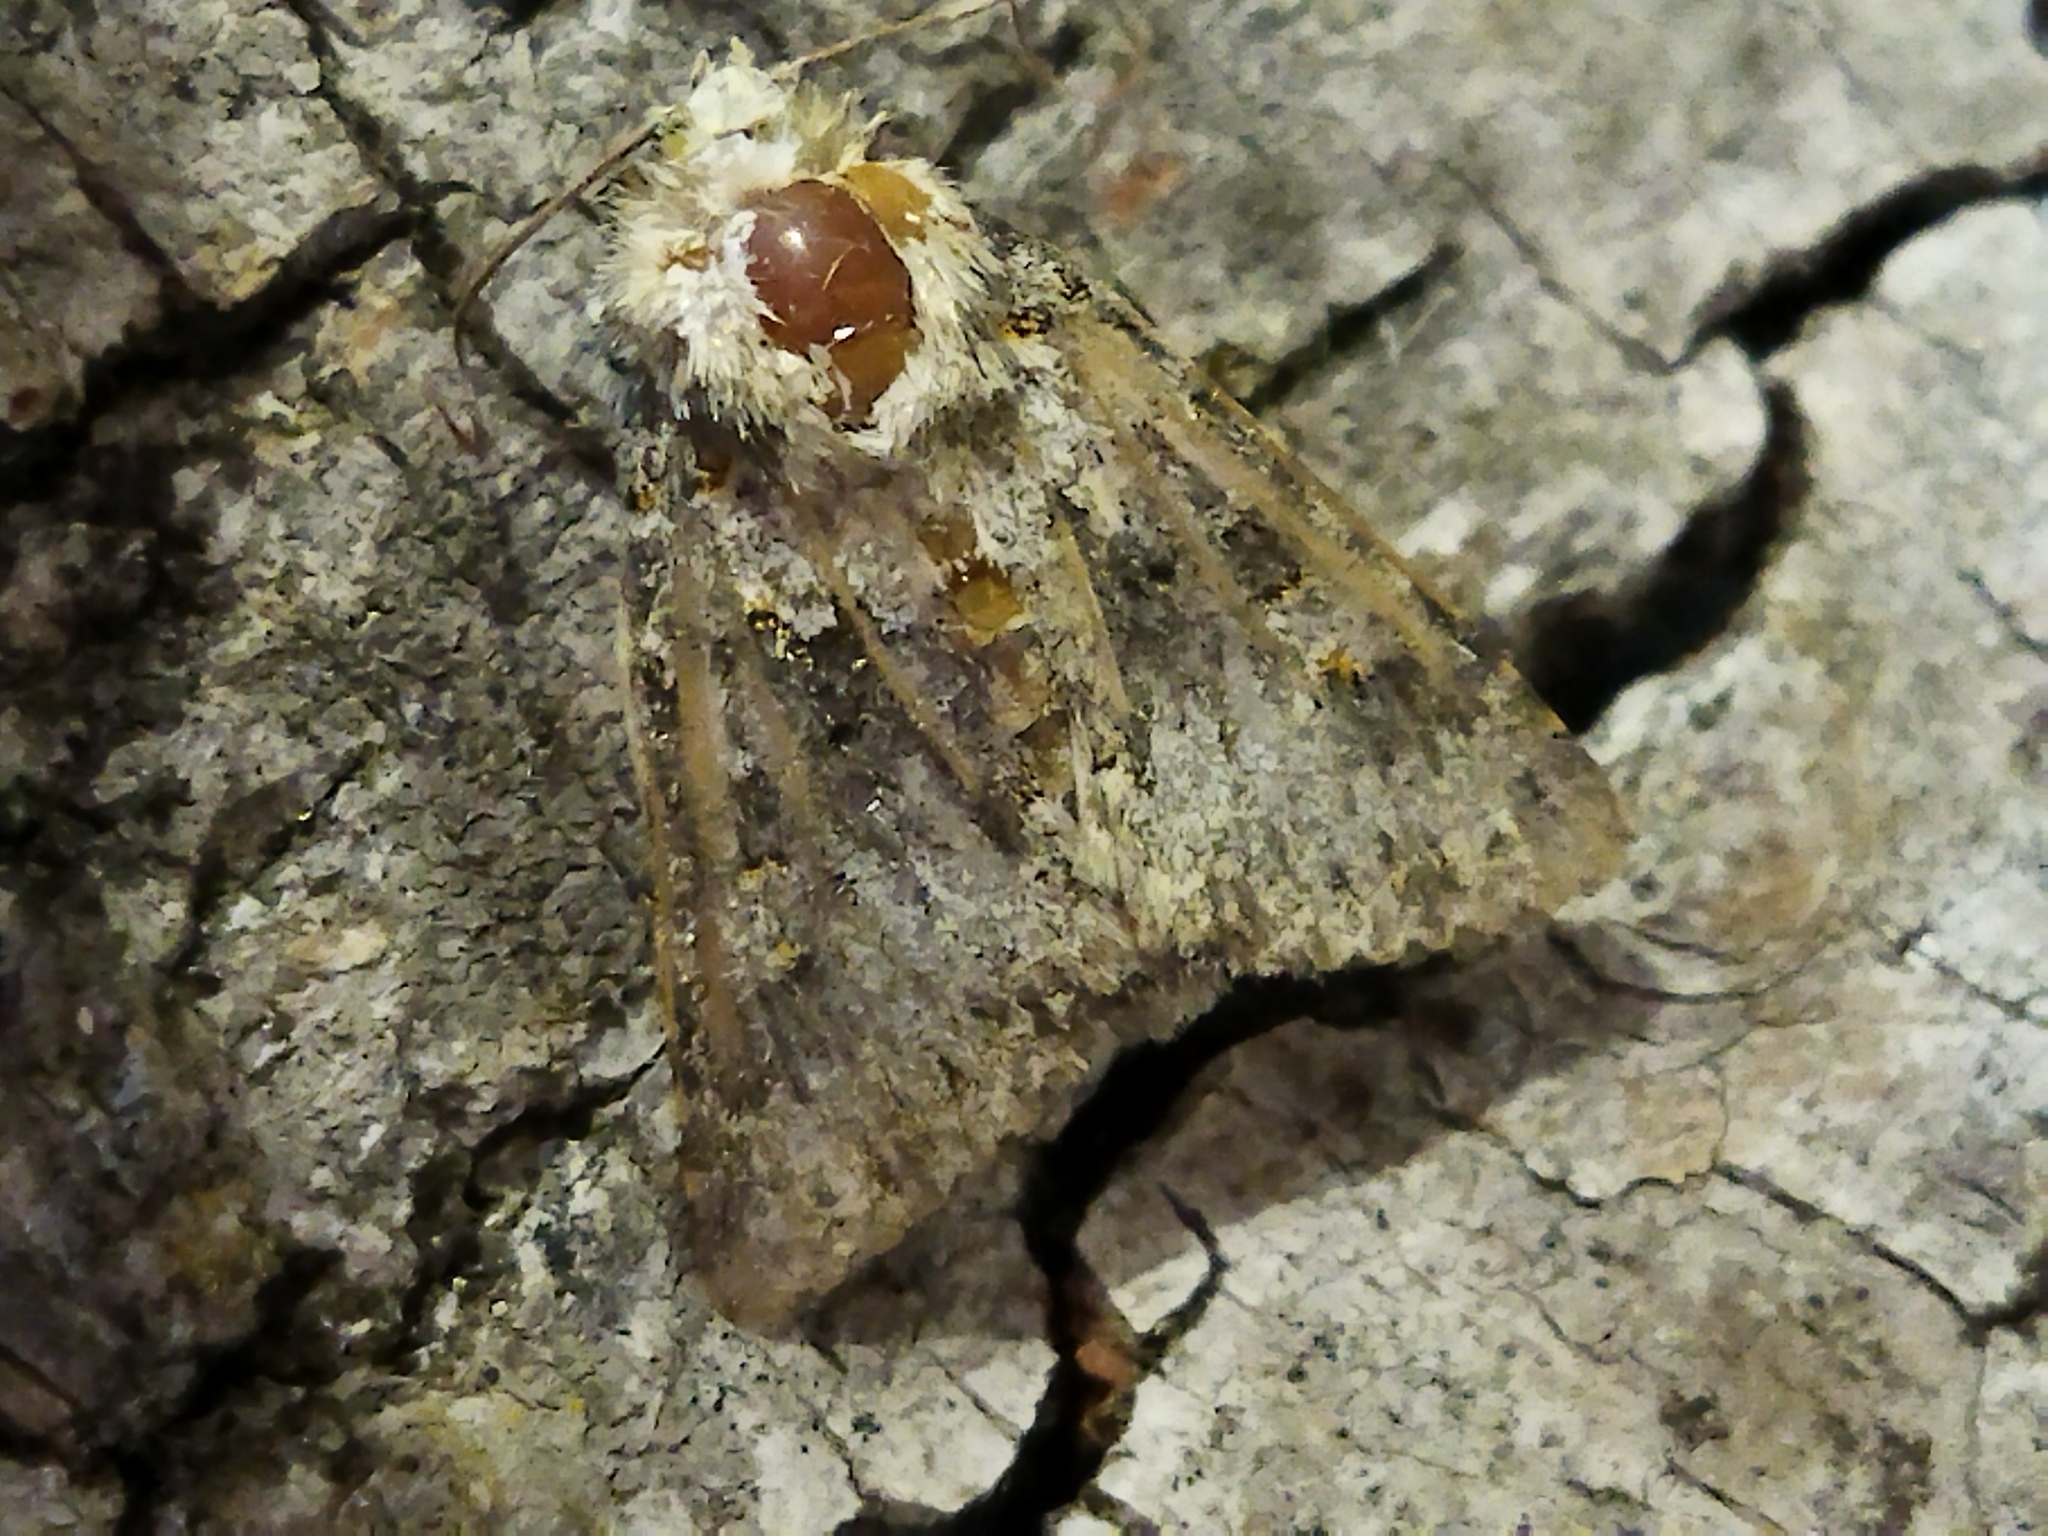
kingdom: Animalia
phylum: Arthropoda
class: Insecta
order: Lepidoptera
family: Noctuidae
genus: Hecatera
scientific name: Hecatera dysodea
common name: Small ranunculus
